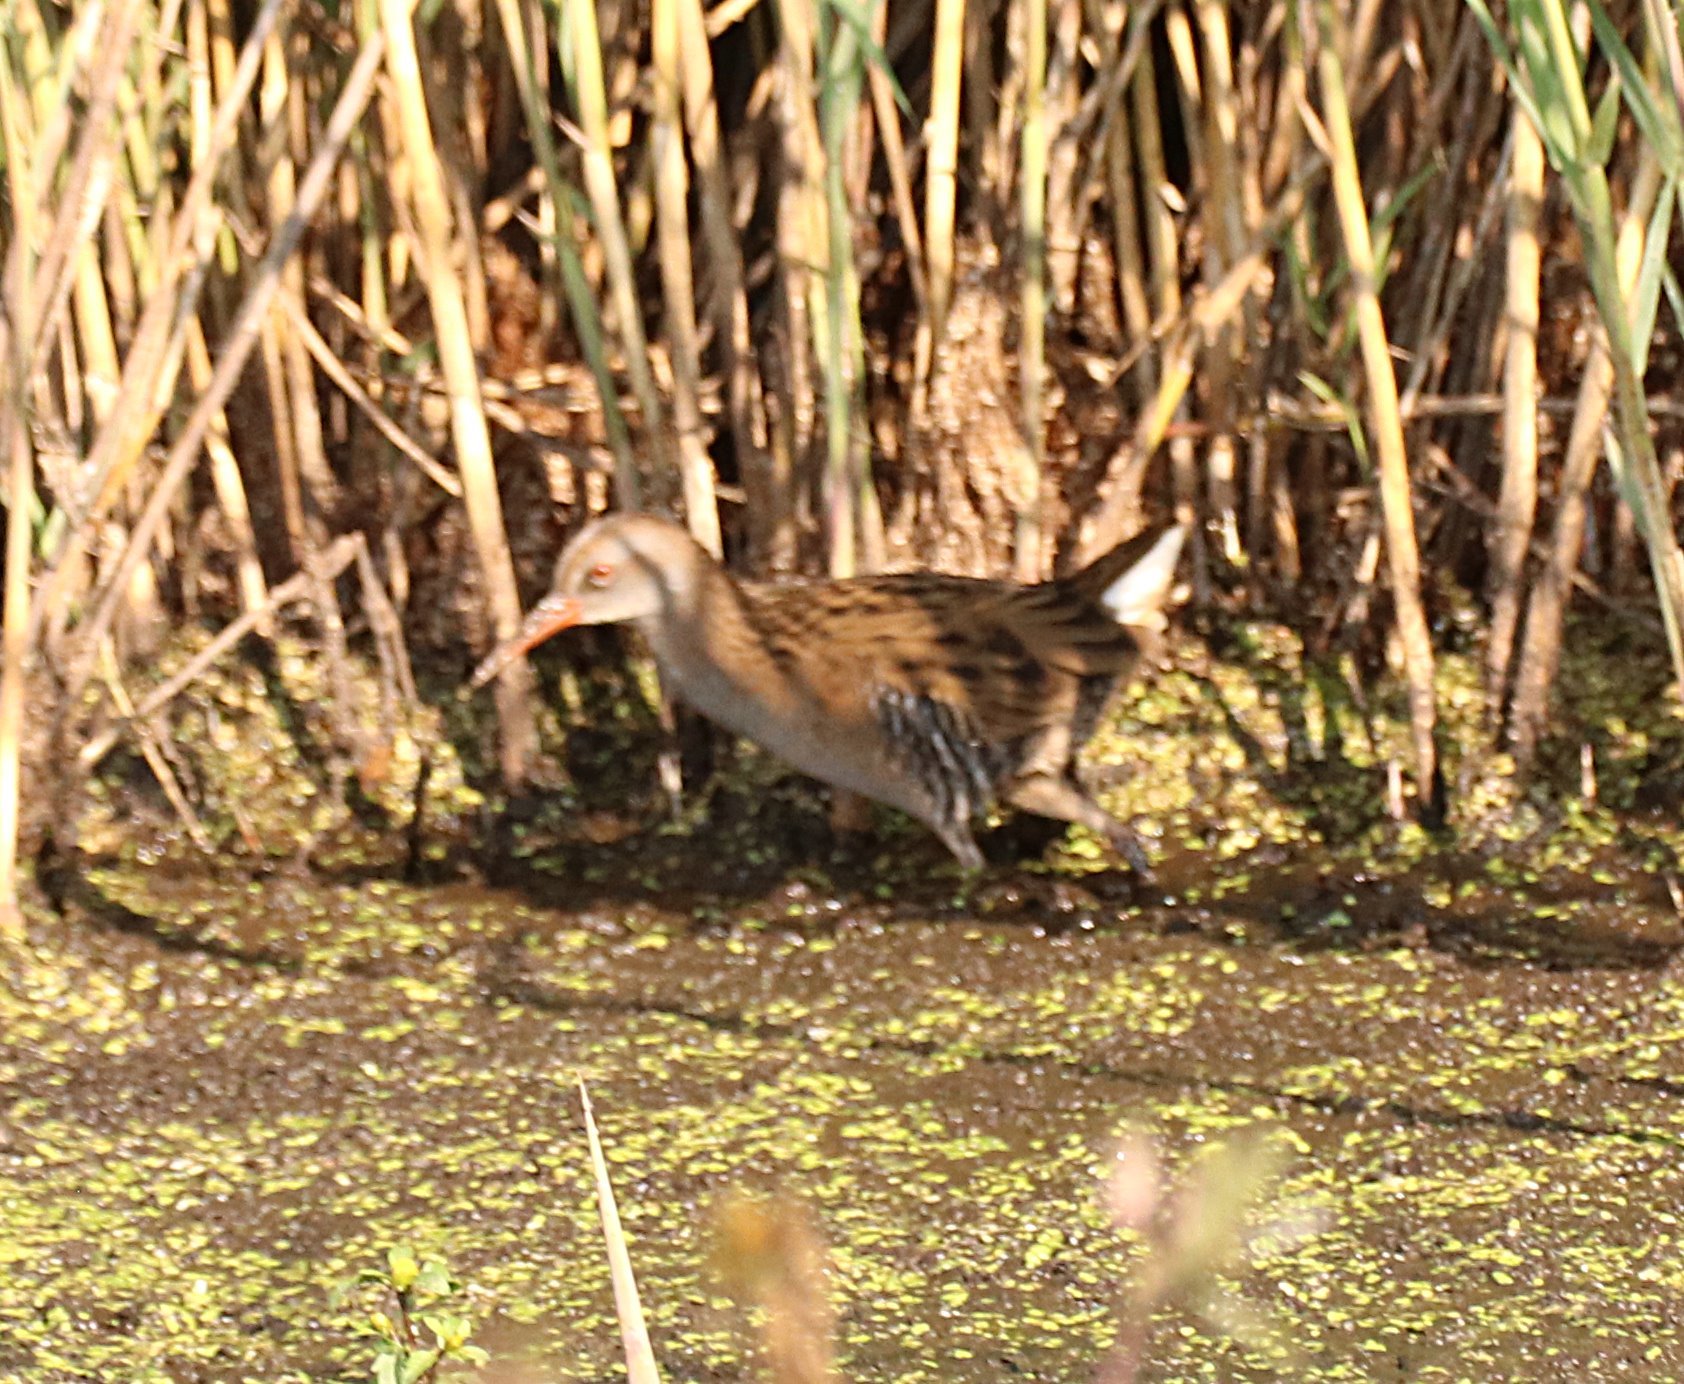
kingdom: Animalia
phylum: Chordata
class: Aves
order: Gruiformes
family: Rallidae
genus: Rallus
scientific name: Rallus aquaticus
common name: Water rail
